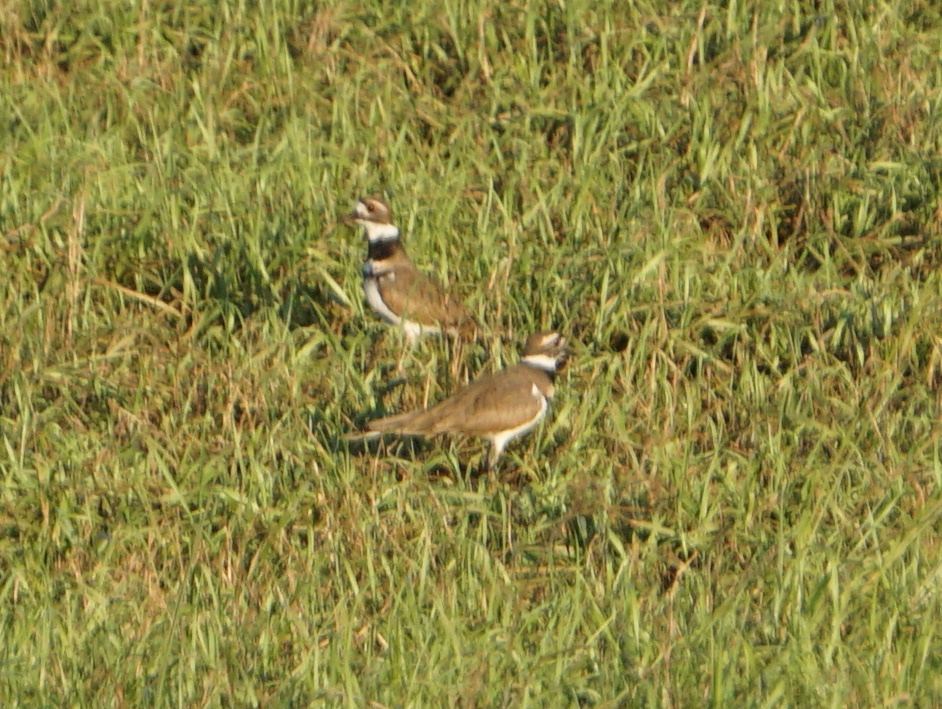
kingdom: Animalia
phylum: Chordata
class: Aves
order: Charadriiformes
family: Charadriidae
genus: Charadrius
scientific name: Charadrius vociferus
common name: Killdeer
